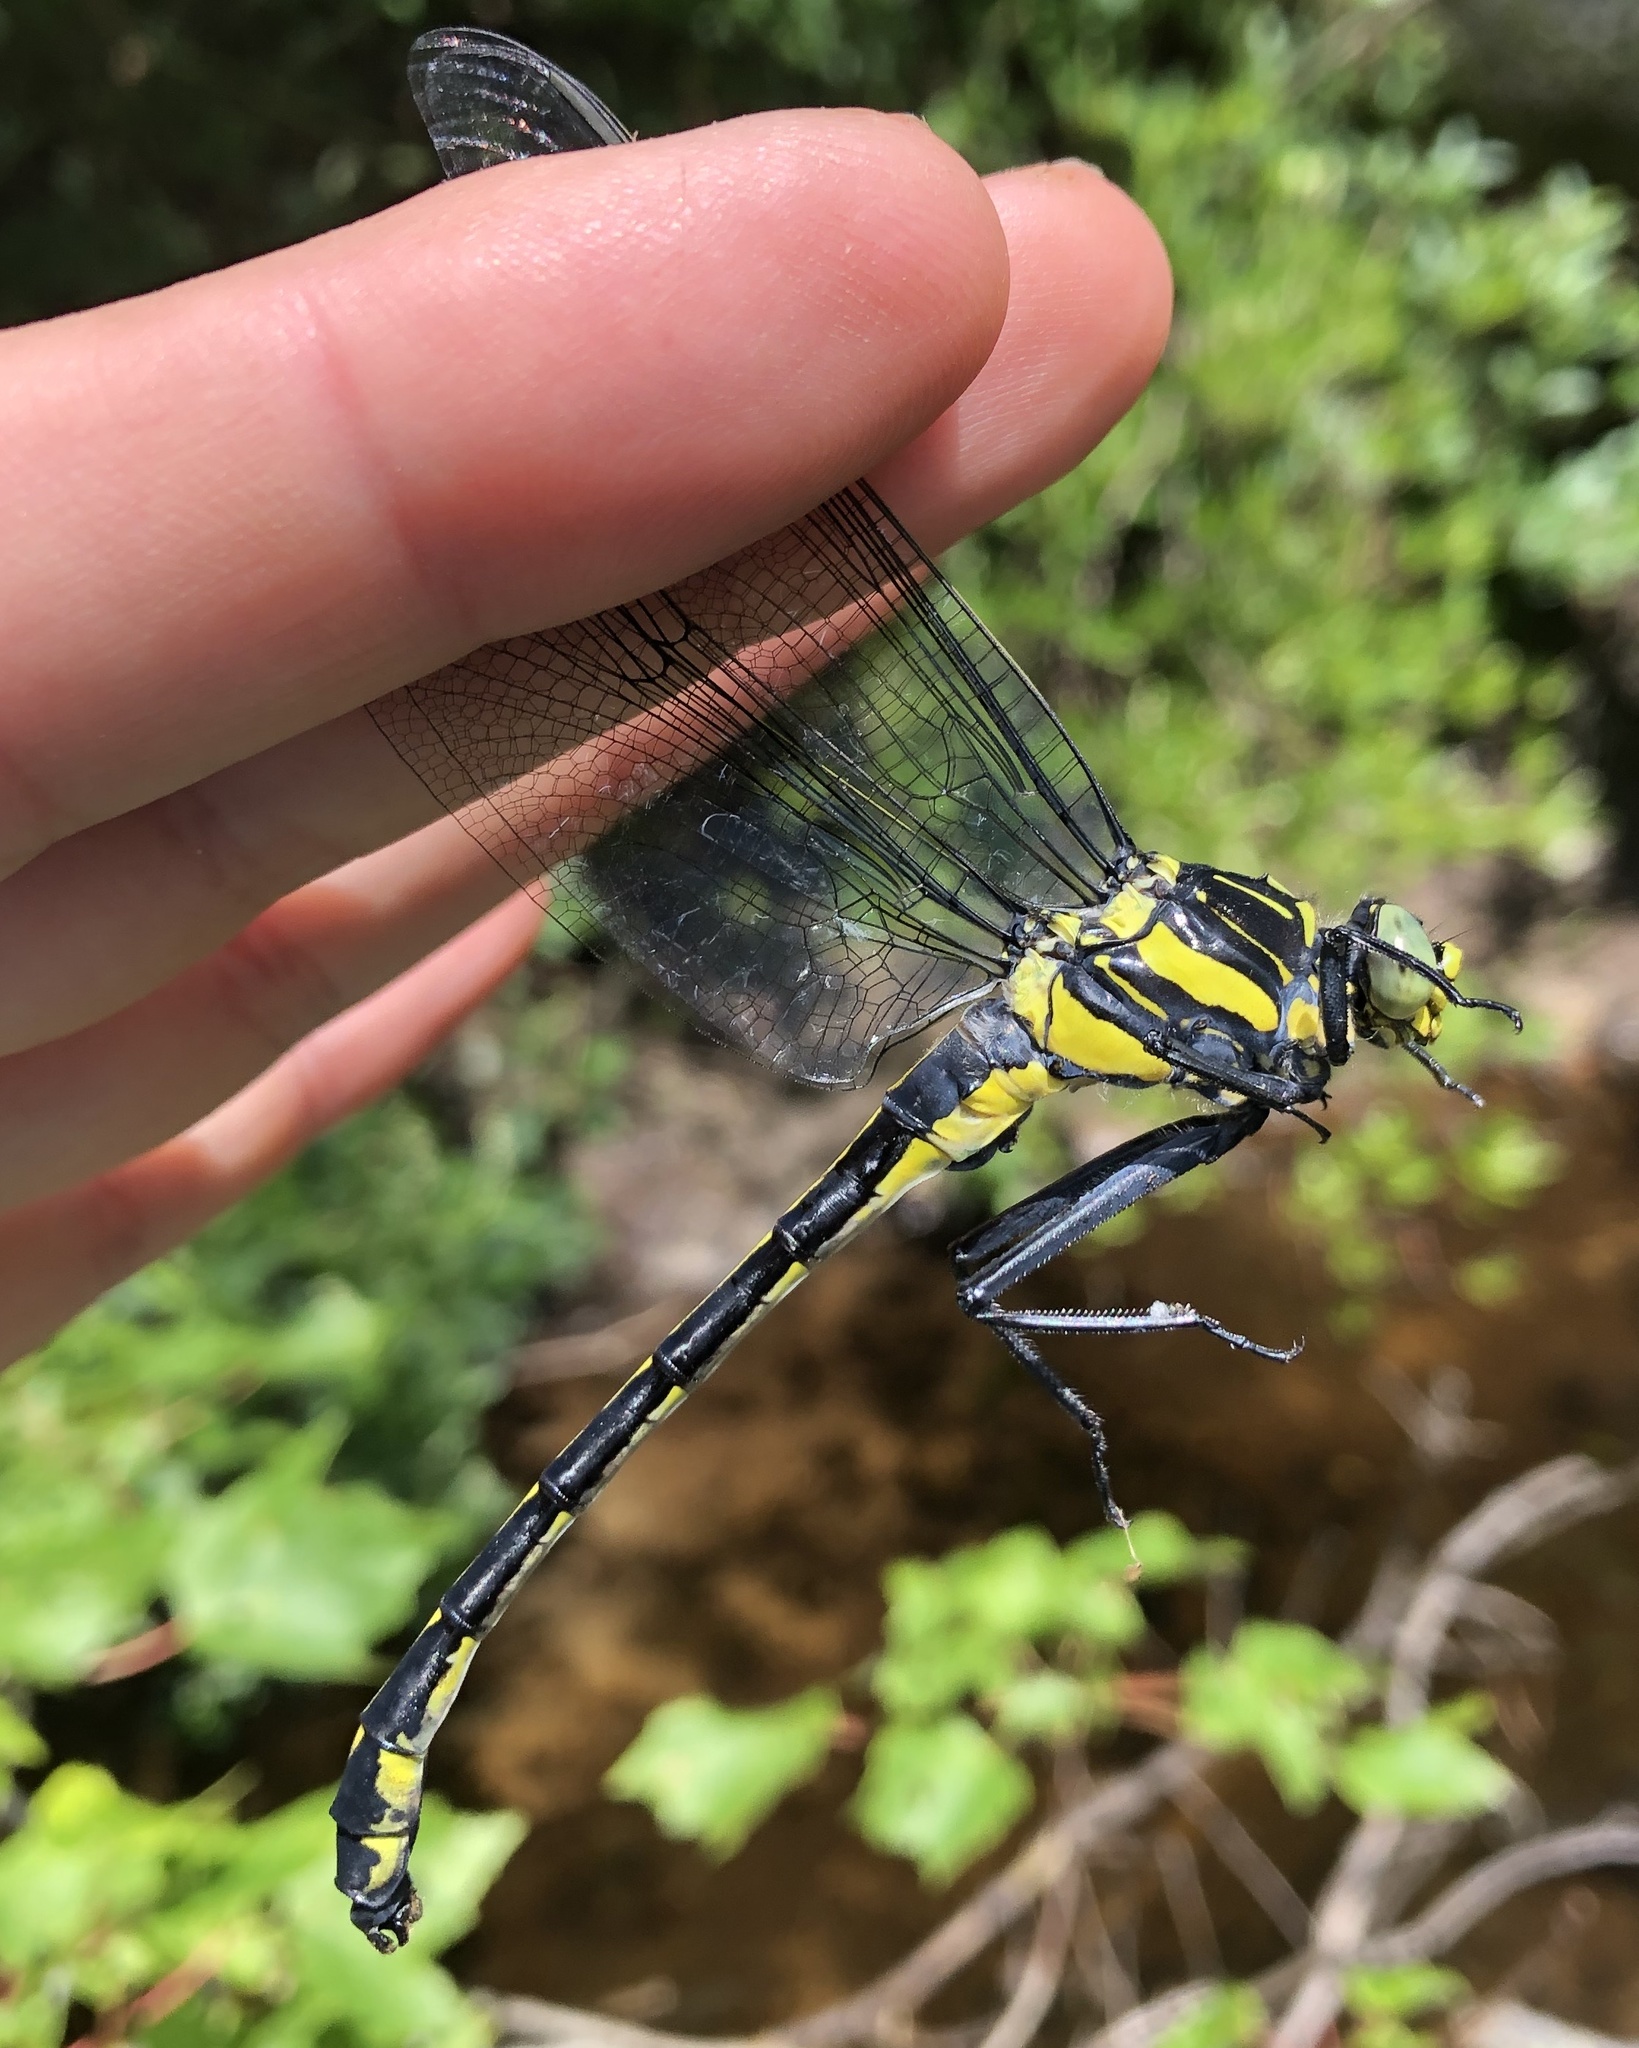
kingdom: Animalia
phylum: Arthropoda
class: Insecta
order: Odonata
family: Gomphidae
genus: Hagenius
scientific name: Hagenius brevistylus
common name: Dragonhunter
